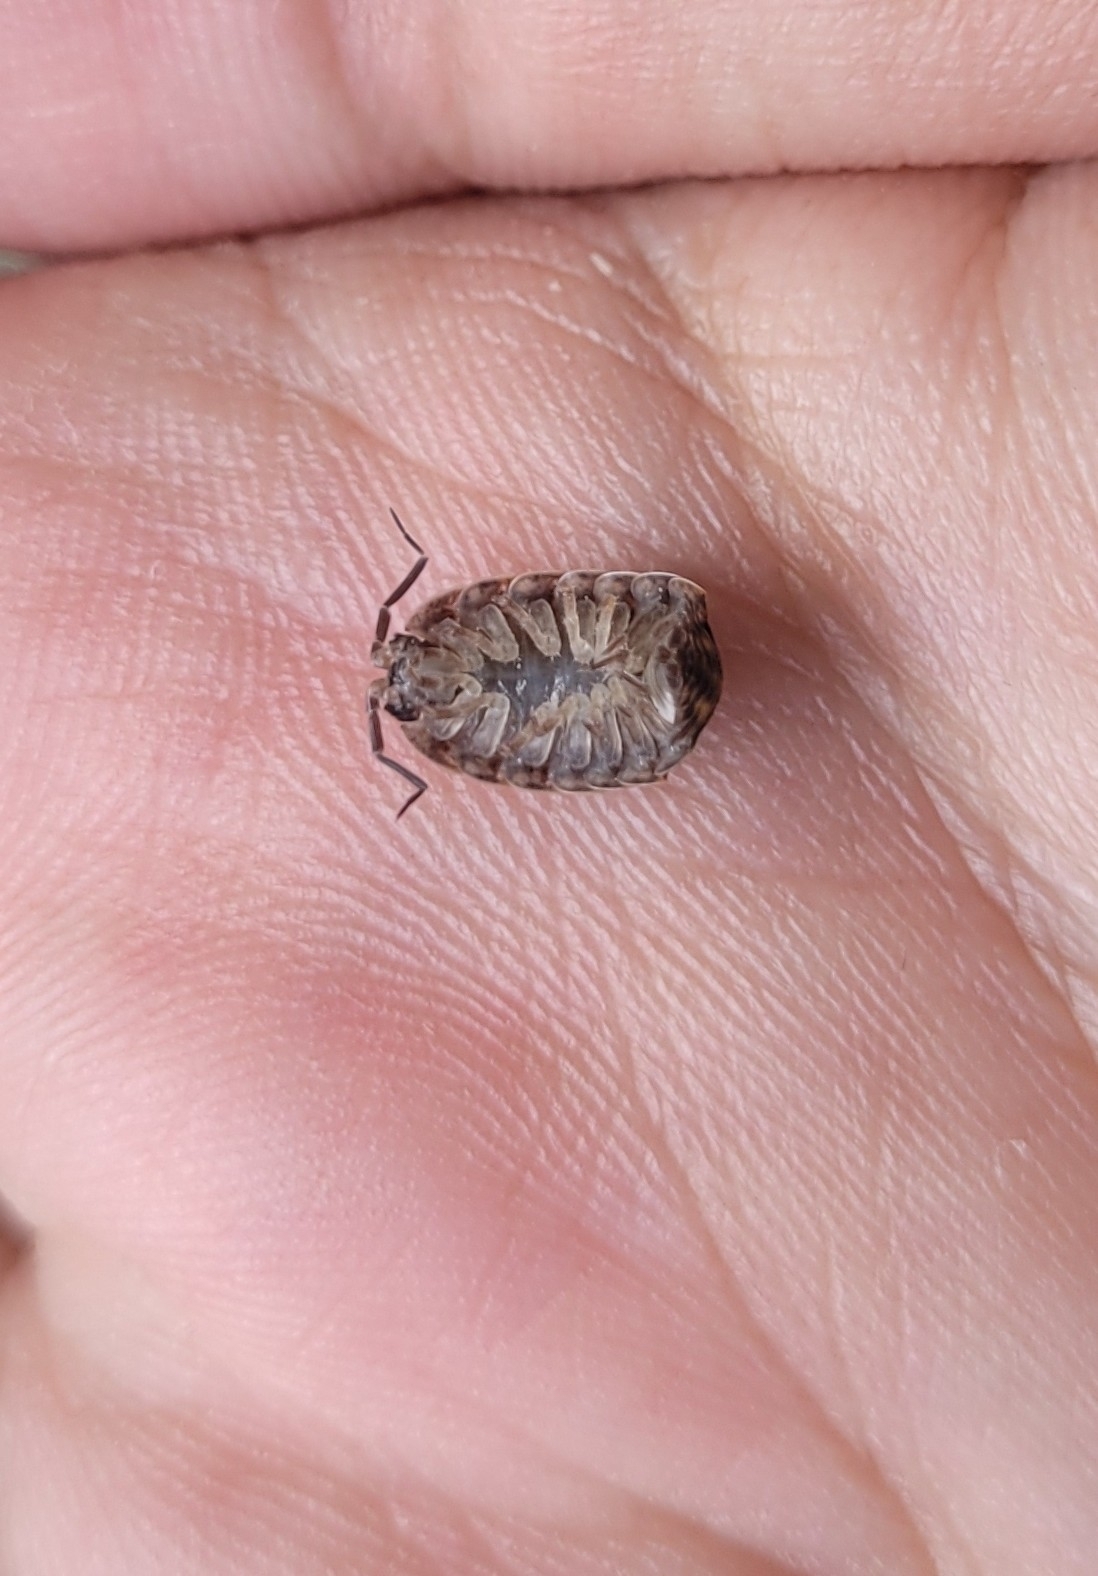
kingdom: Animalia
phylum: Arthropoda
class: Malacostraca
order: Isopoda
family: Trachelipodidae
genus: Trachelipus
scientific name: Trachelipus rathkii
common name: Isopod
